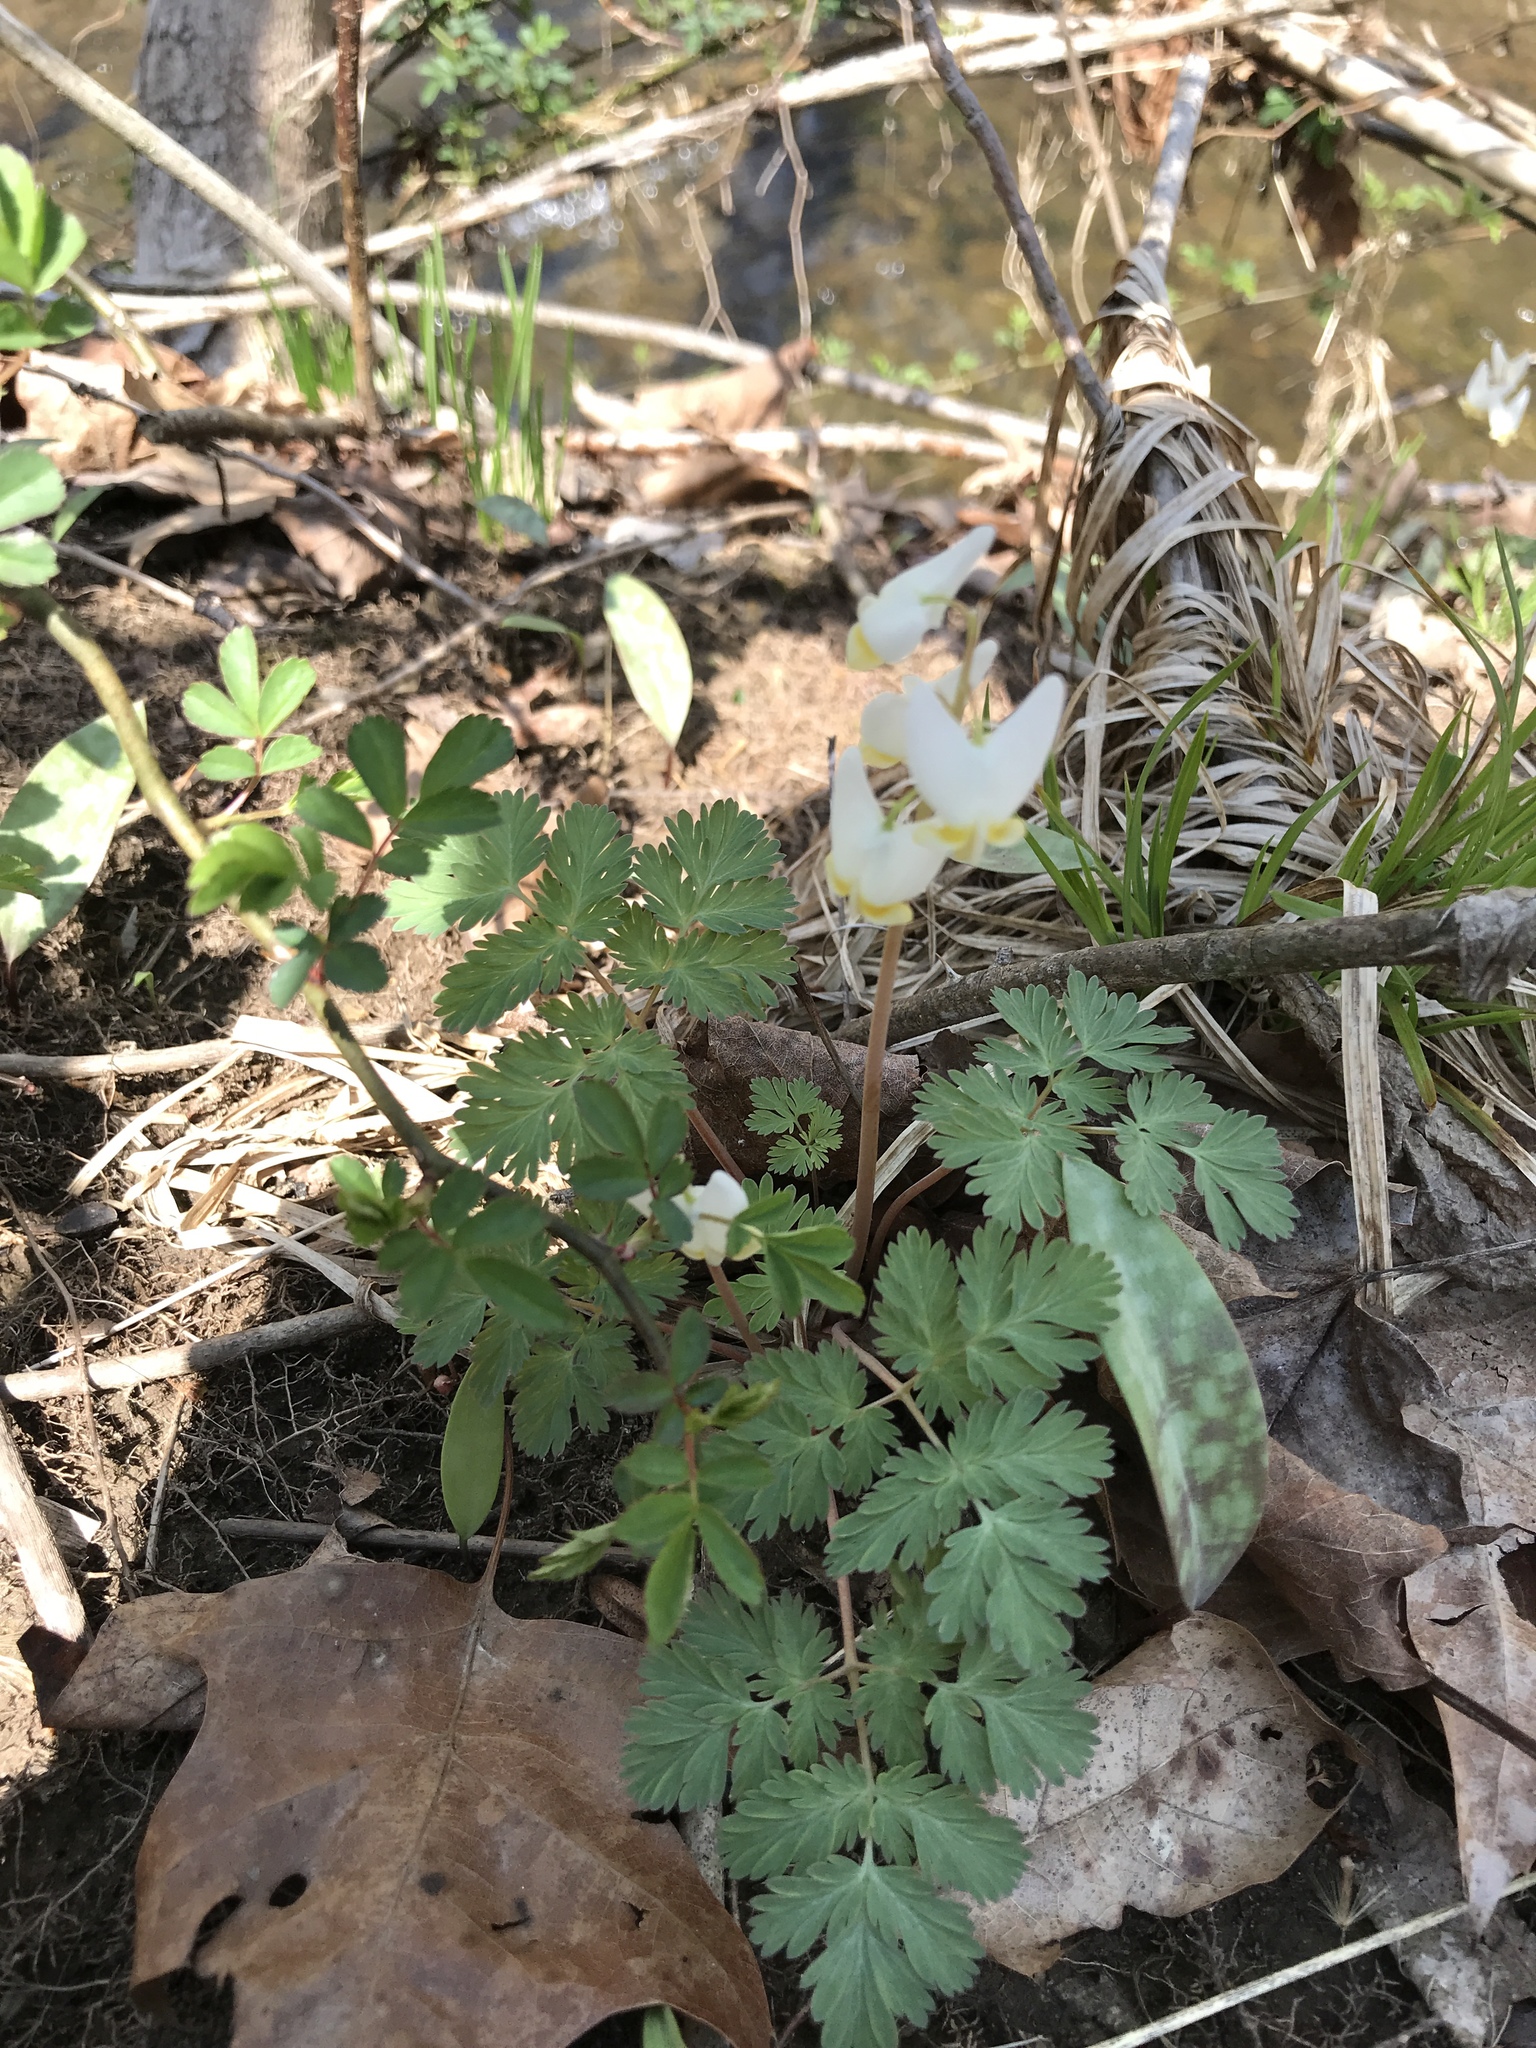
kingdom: Plantae
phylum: Tracheophyta
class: Magnoliopsida
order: Ranunculales
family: Papaveraceae
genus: Dicentra
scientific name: Dicentra cucullaria
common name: Dutchman's breeches
